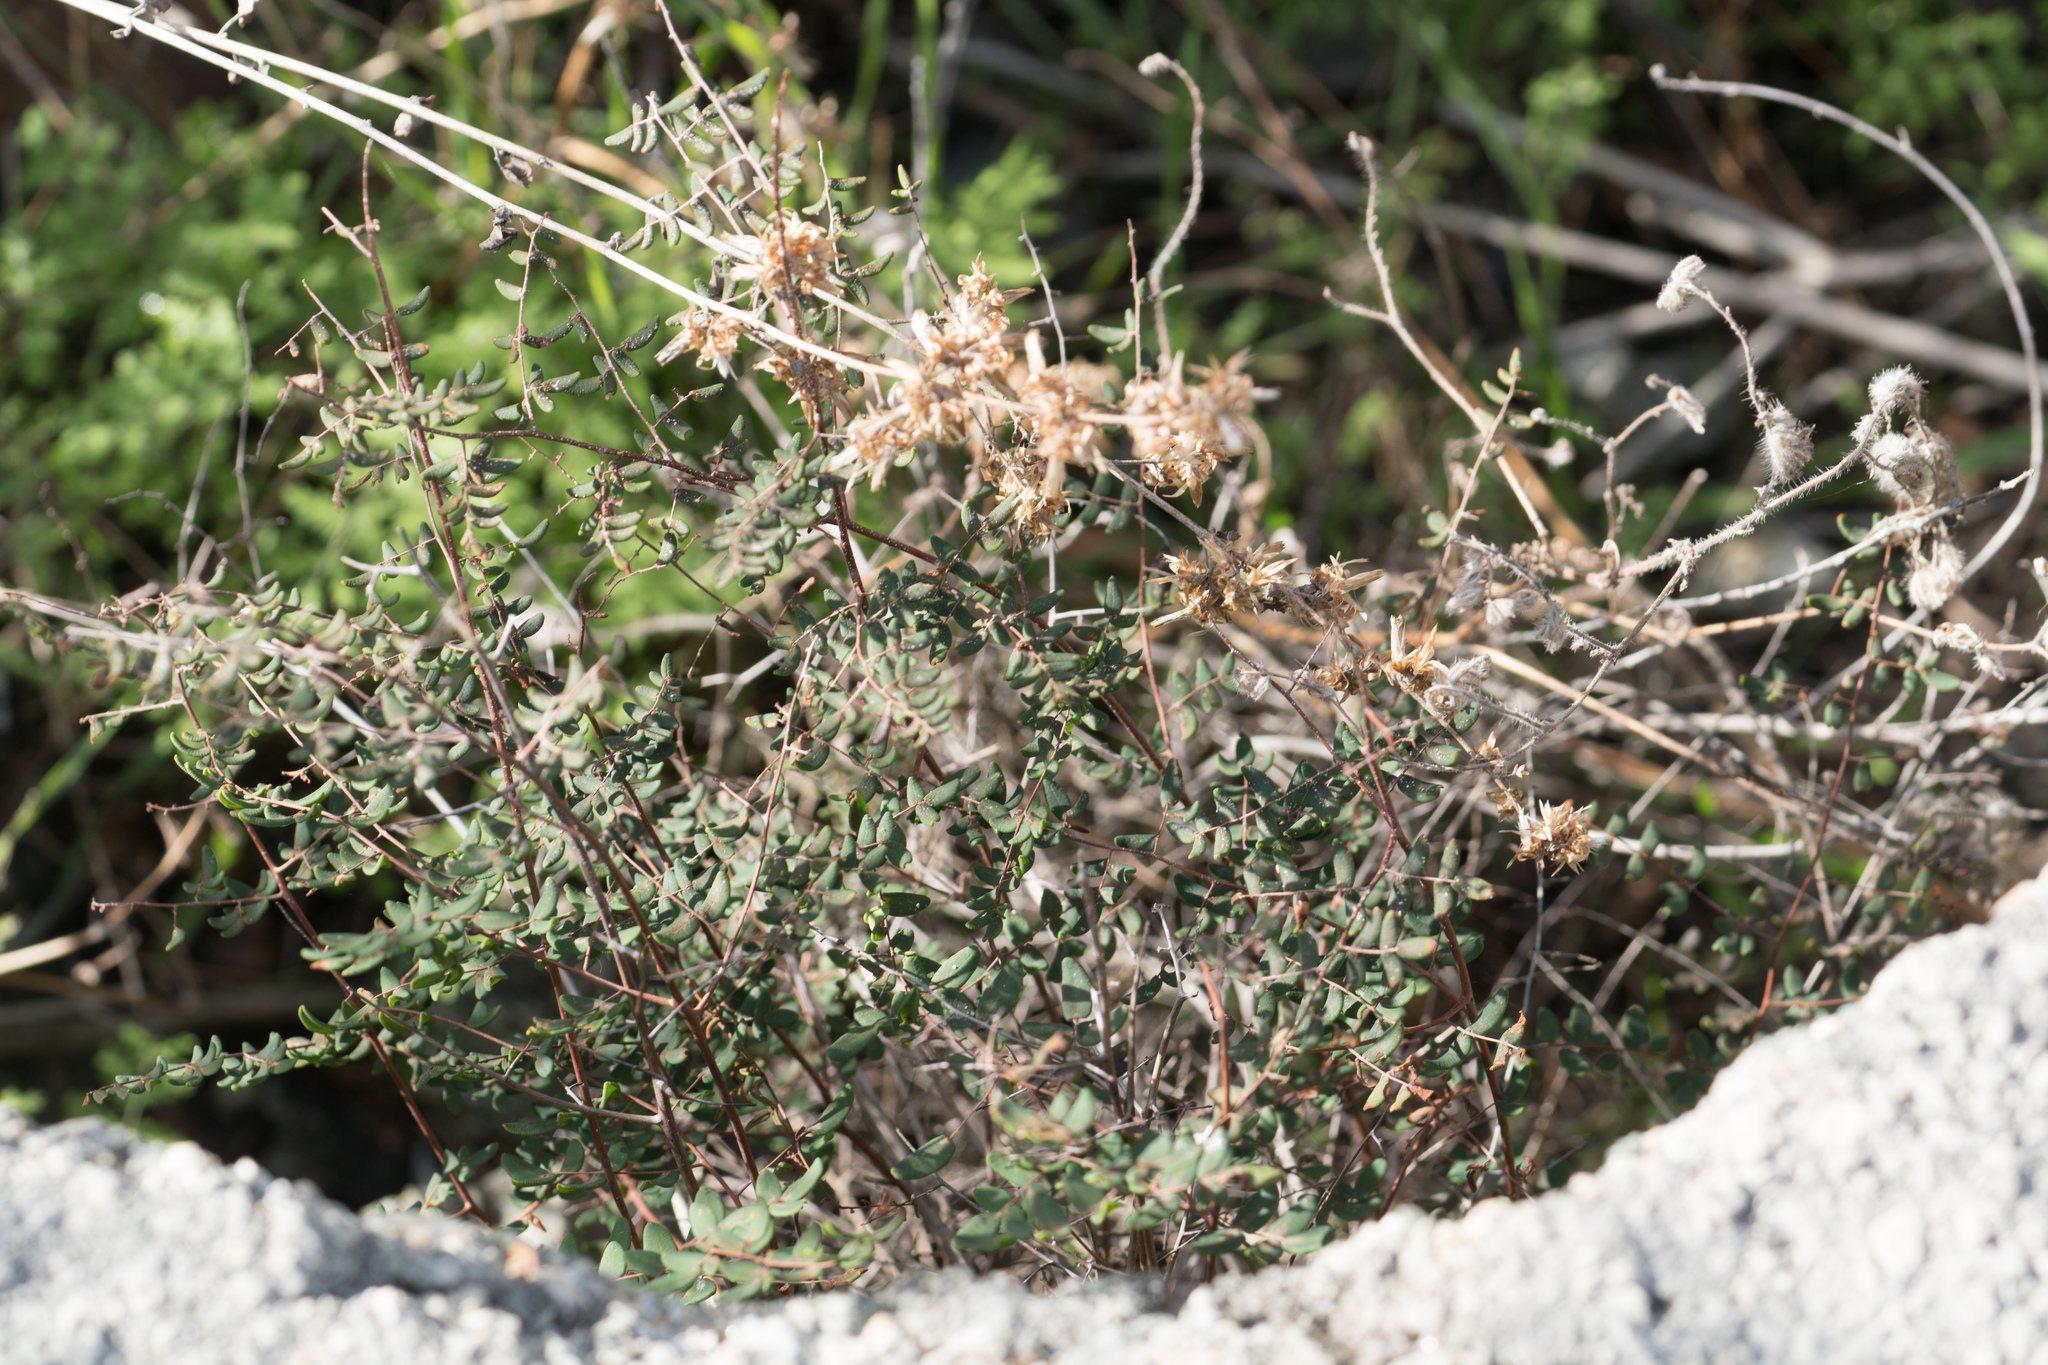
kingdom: Plantae
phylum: Tracheophyta
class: Polypodiopsida
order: Polypodiales
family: Pteridaceae
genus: Pellaea
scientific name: Pellaea andromedifolia
